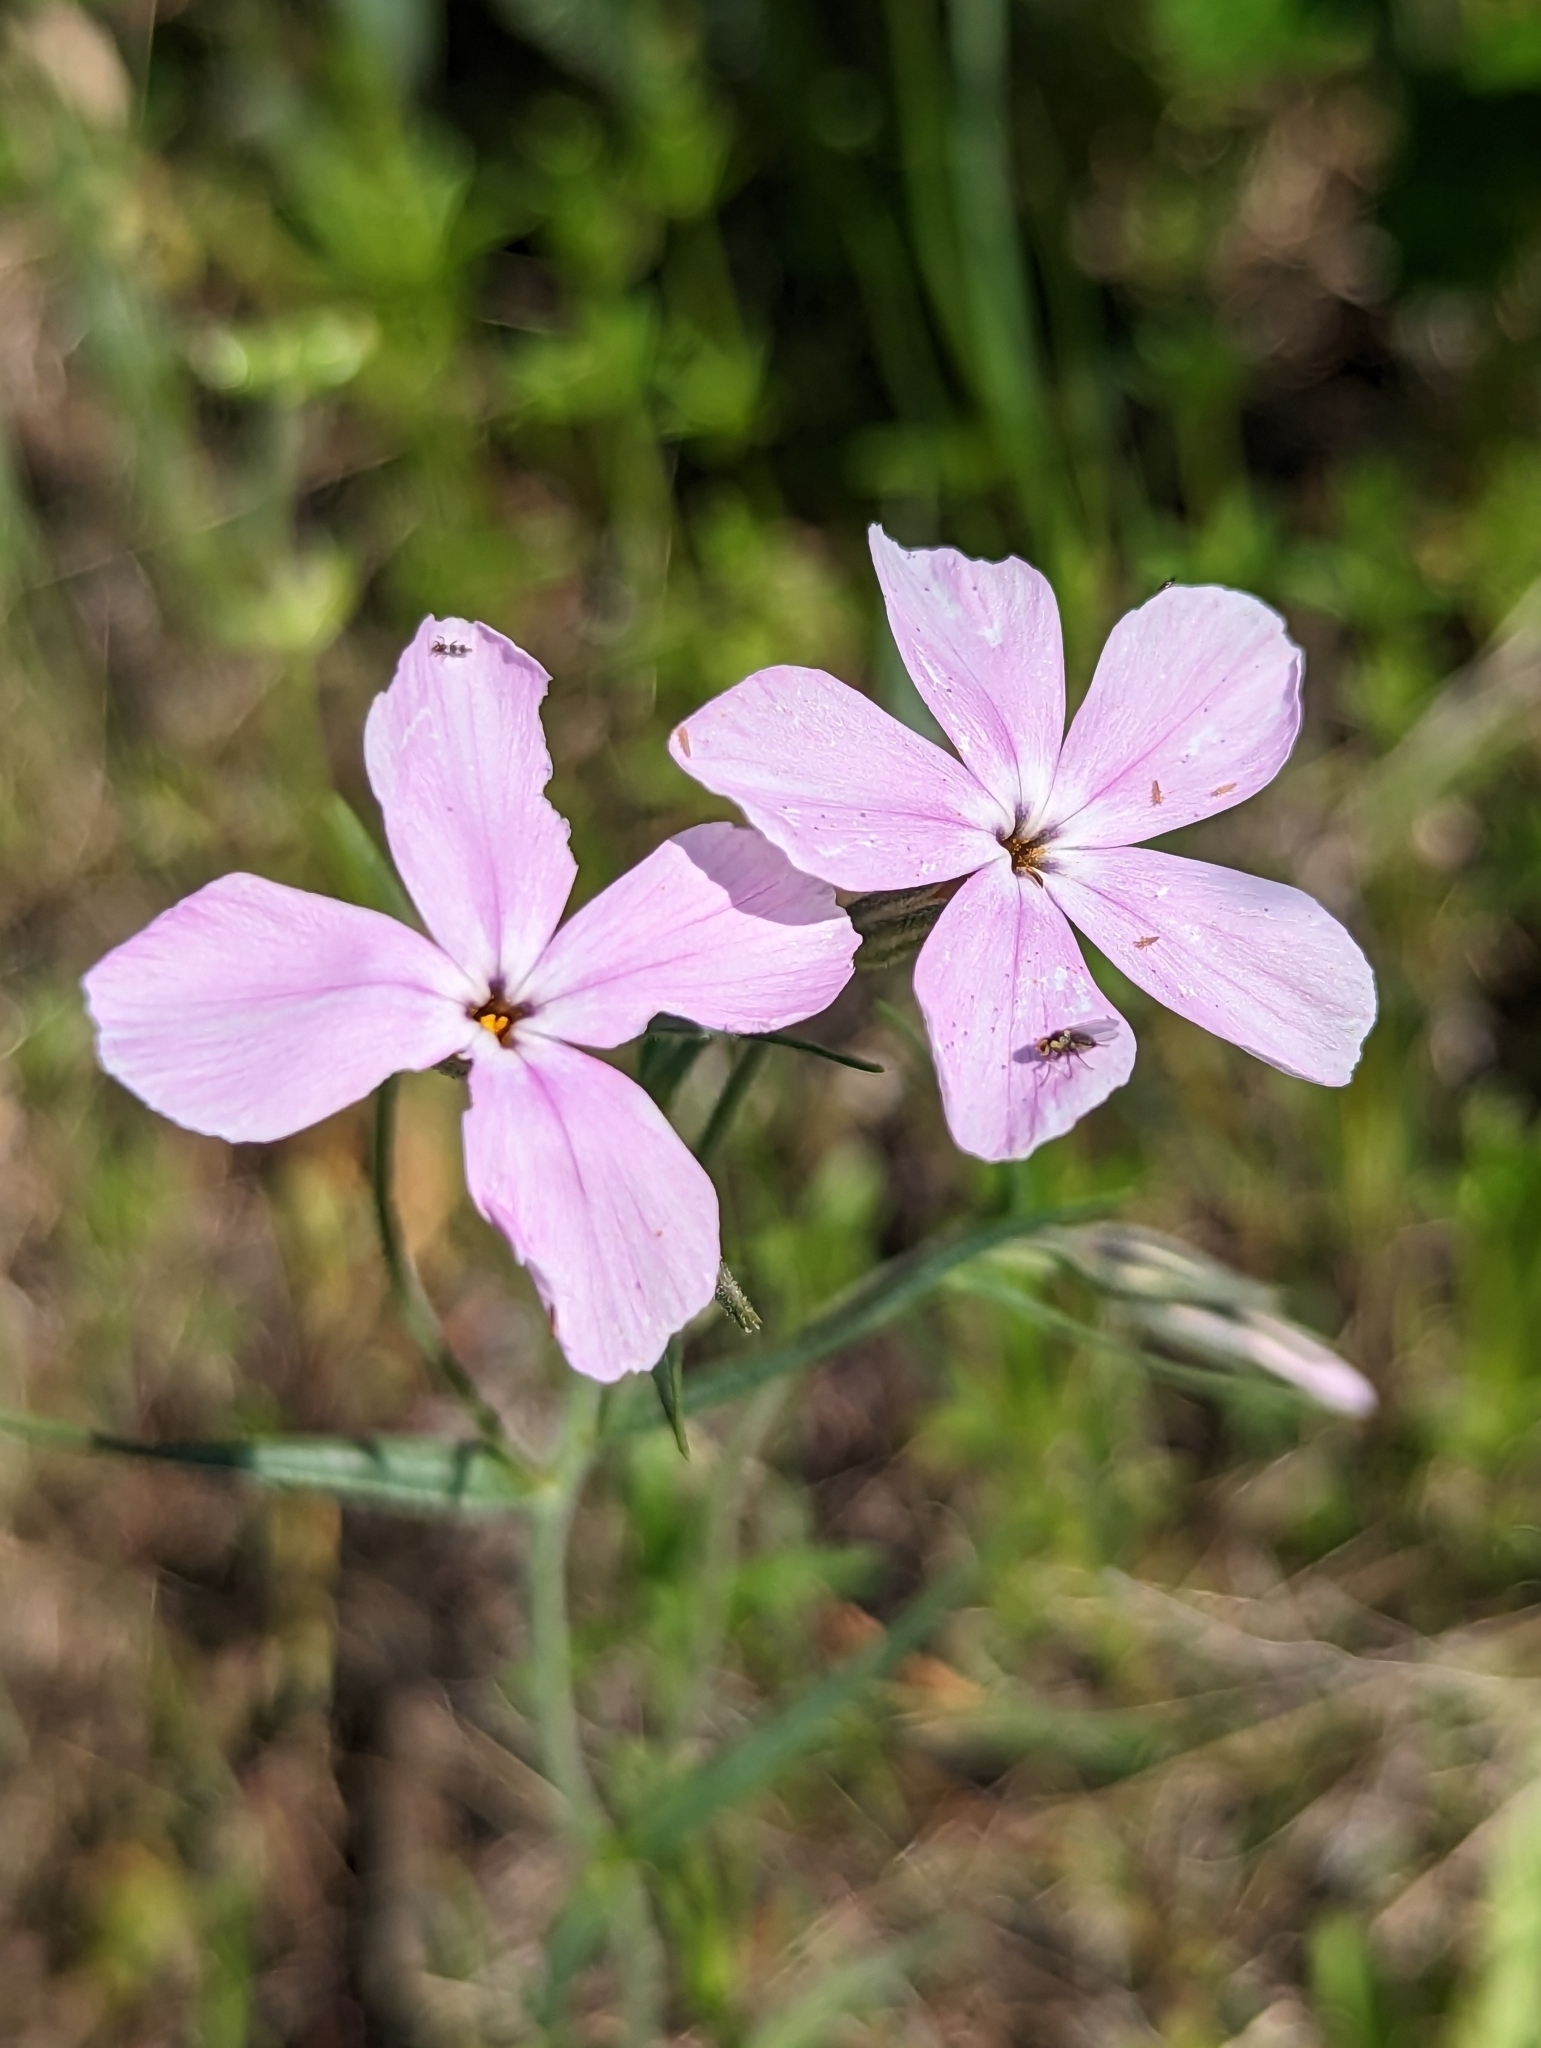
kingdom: Plantae
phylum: Tracheophyta
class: Magnoliopsida
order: Ericales
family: Polemoniaceae
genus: Phlox
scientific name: Phlox speciosa
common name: Bush phlox
